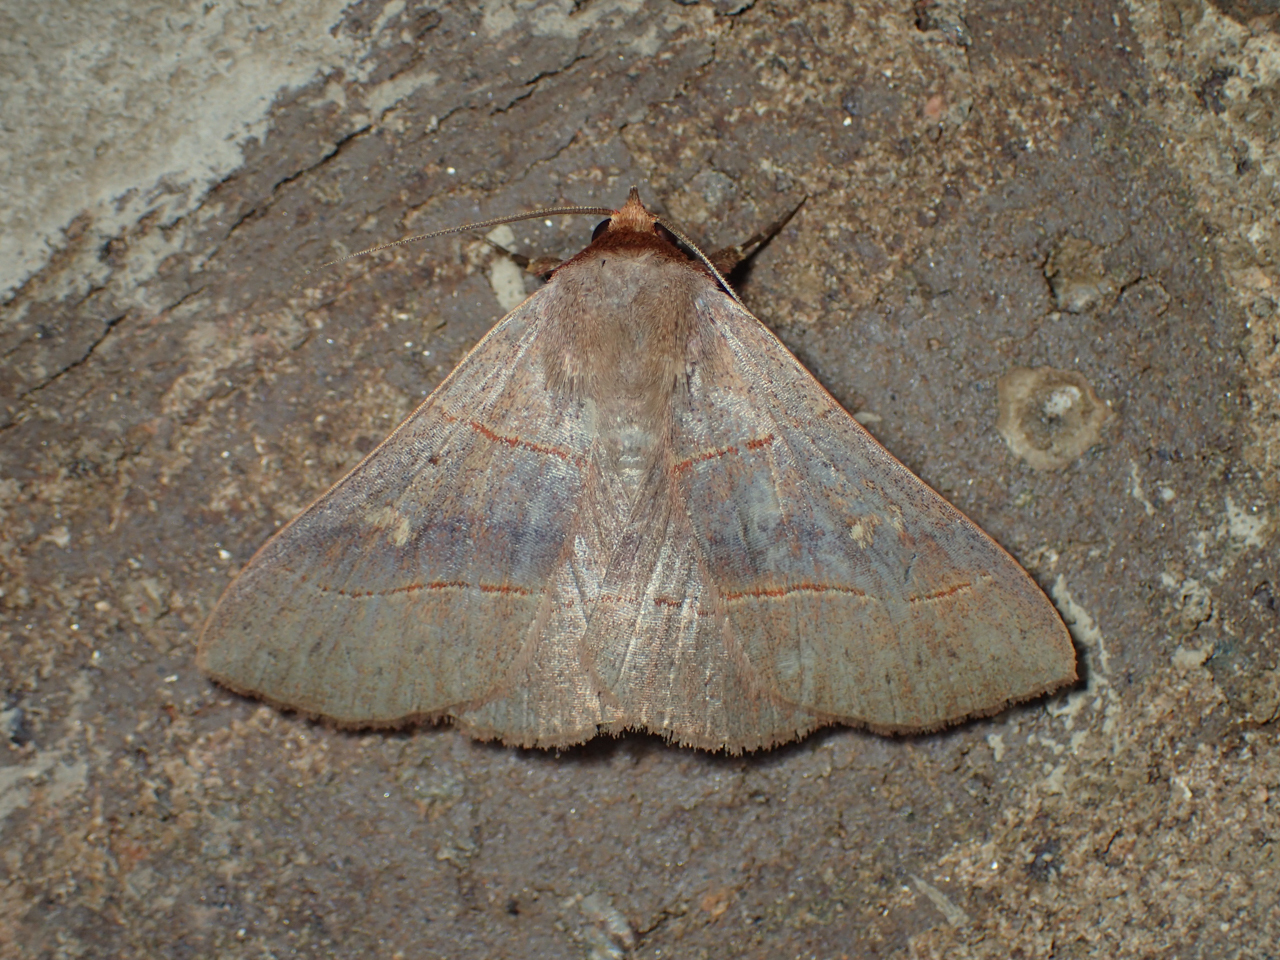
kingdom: Animalia
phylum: Arthropoda
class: Insecta
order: Lepidoptera
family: Erebidae
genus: Panopoda
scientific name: Panopoda rufimargo
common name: Red-lined panopoda moth
